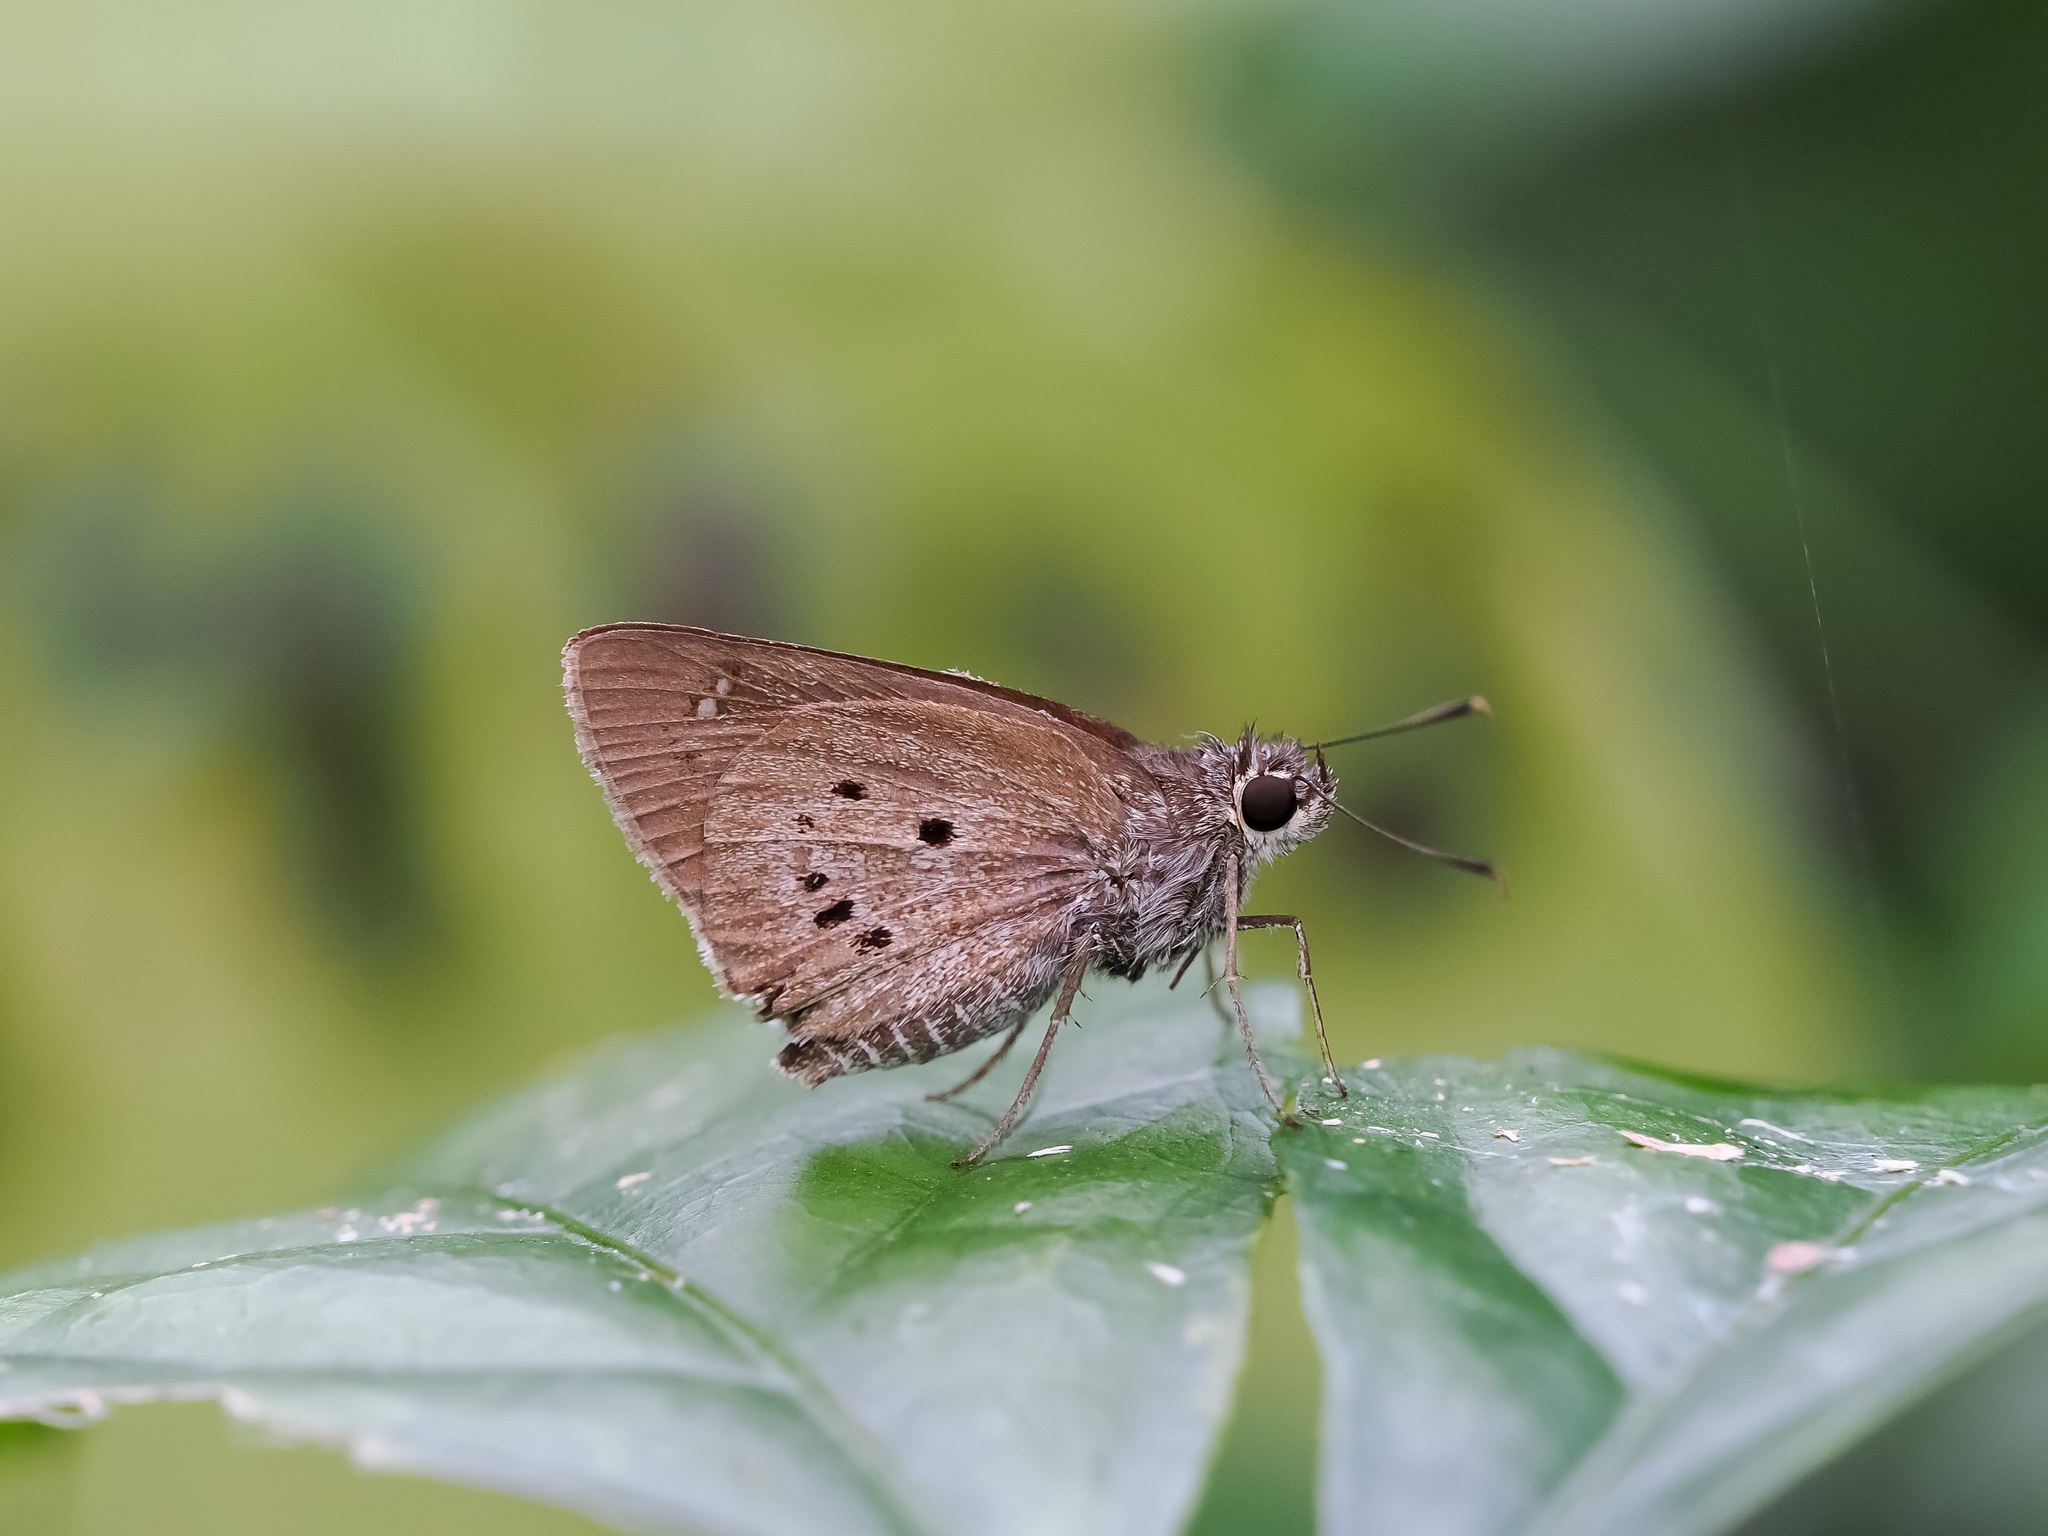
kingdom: Animalia
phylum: Arthropoda
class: Insecta
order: Lepidoptera
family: Hesperiidae
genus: Suastus
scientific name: Suastus gremius
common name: Indian palm bob
